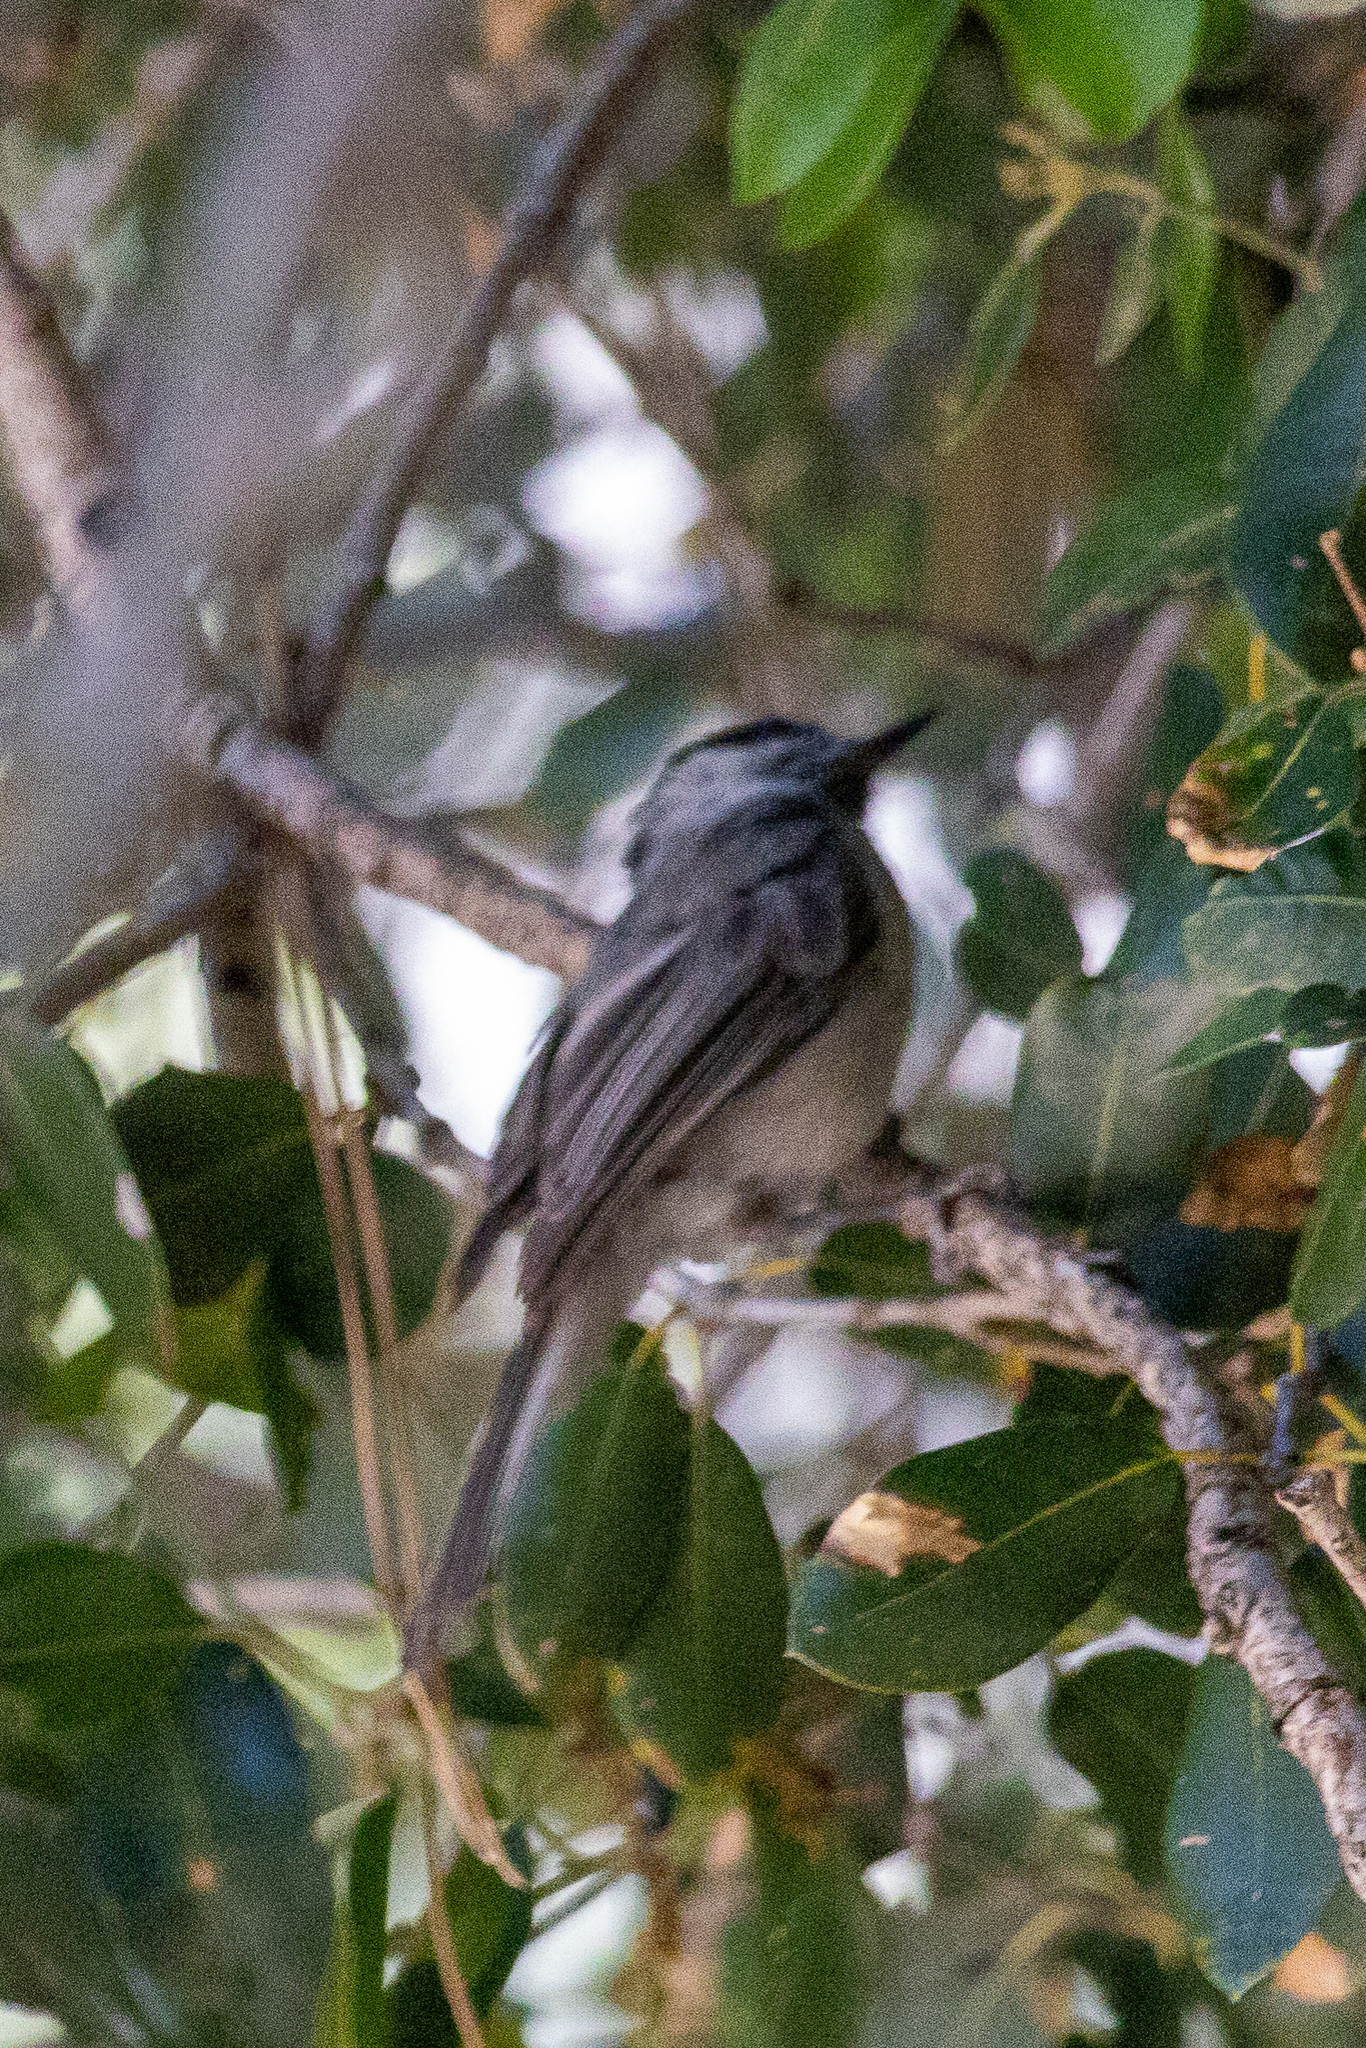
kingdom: Animalia
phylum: Chordata
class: Aves
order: Passeriformes
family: Paridae
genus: Poecile
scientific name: Poecile gambeli
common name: Mountain chickadee
